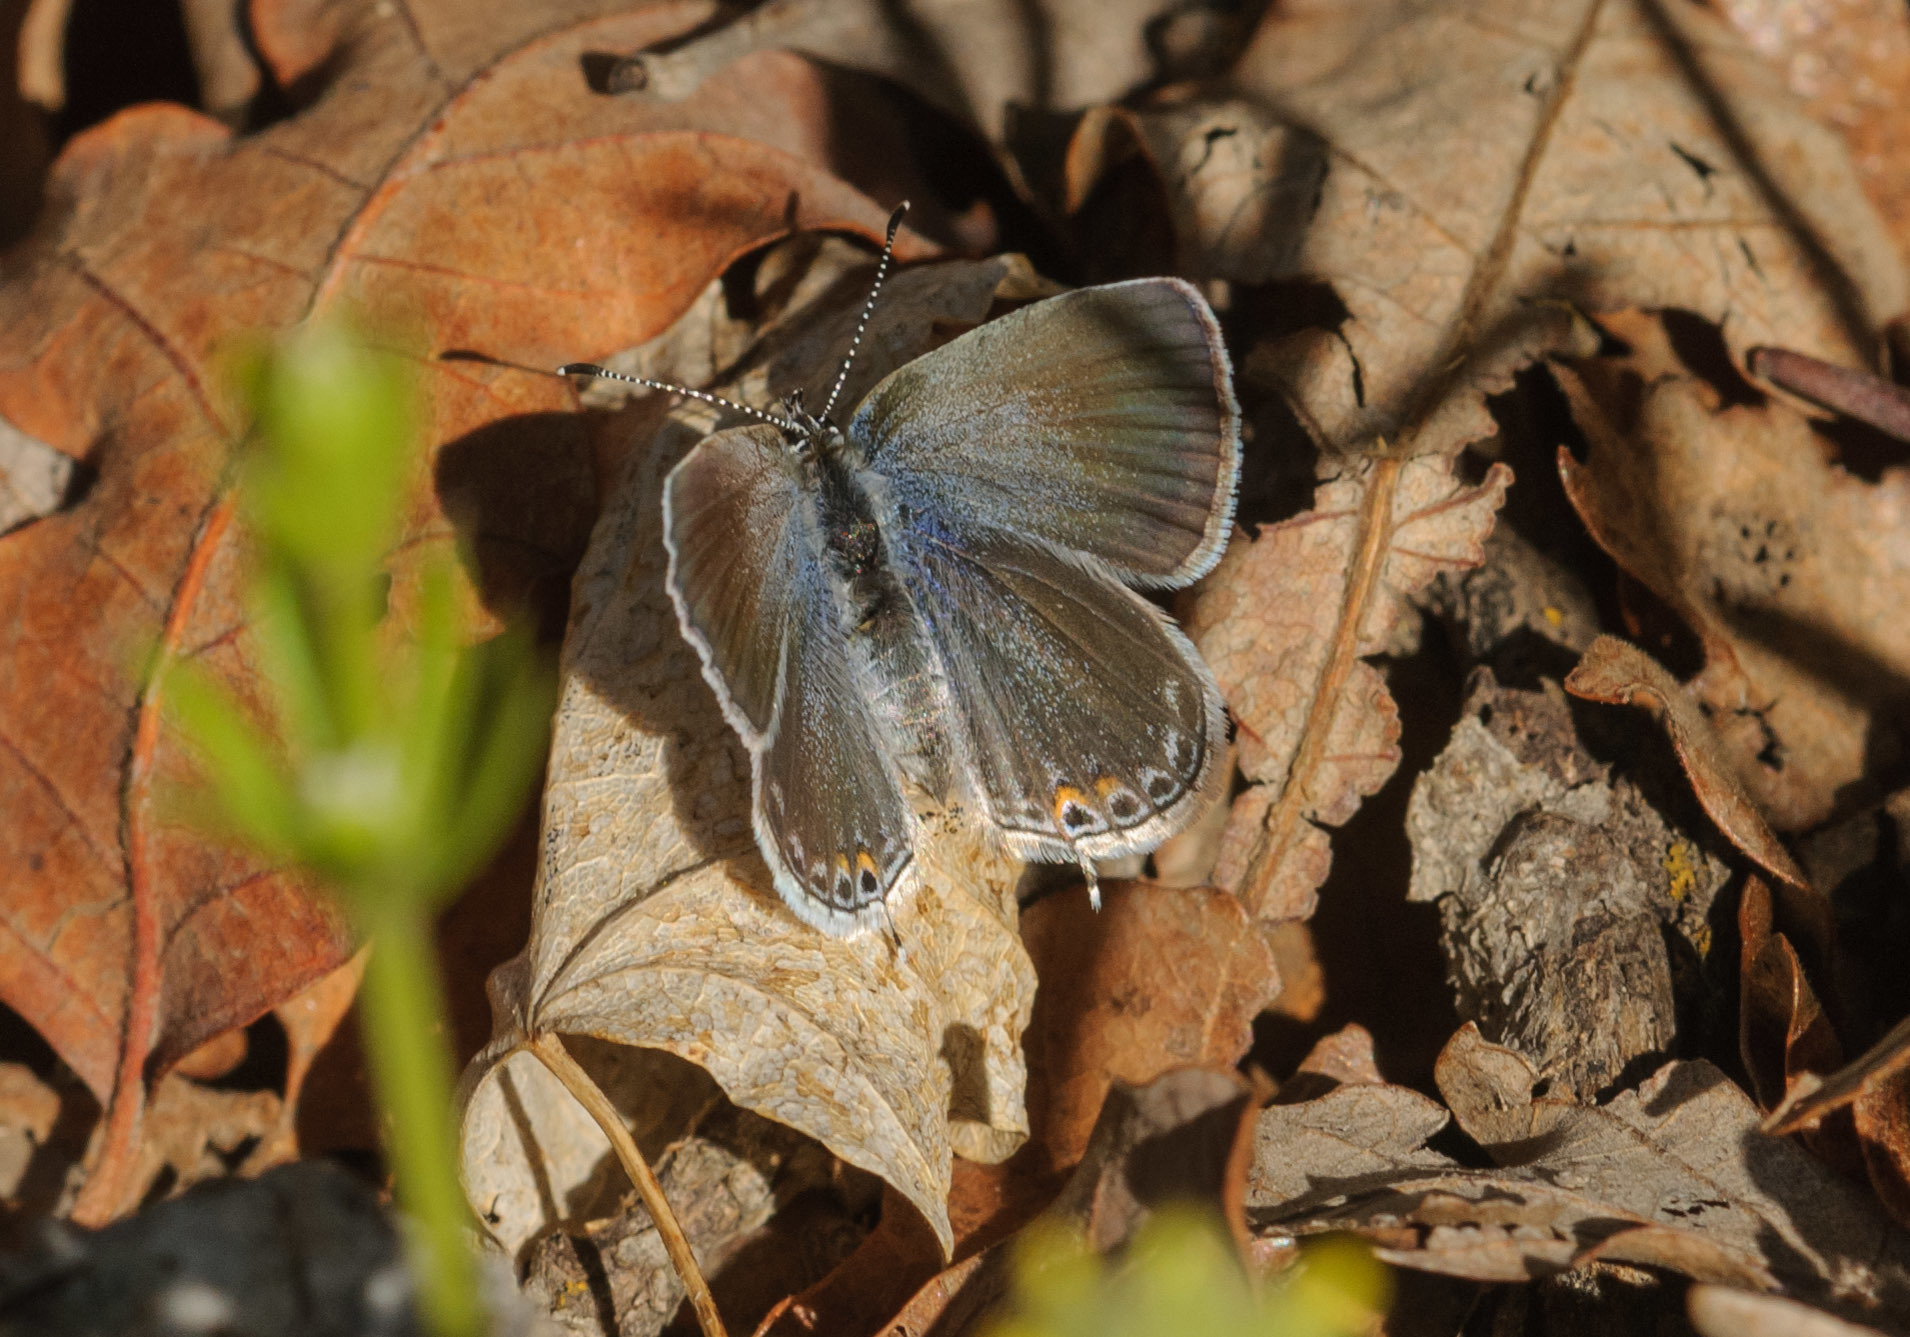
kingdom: Animalia
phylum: Arthropoda
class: Insecta
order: Lepidoptera
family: Lycaenidae
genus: Elkalyce
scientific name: Elkalyce amyntula
